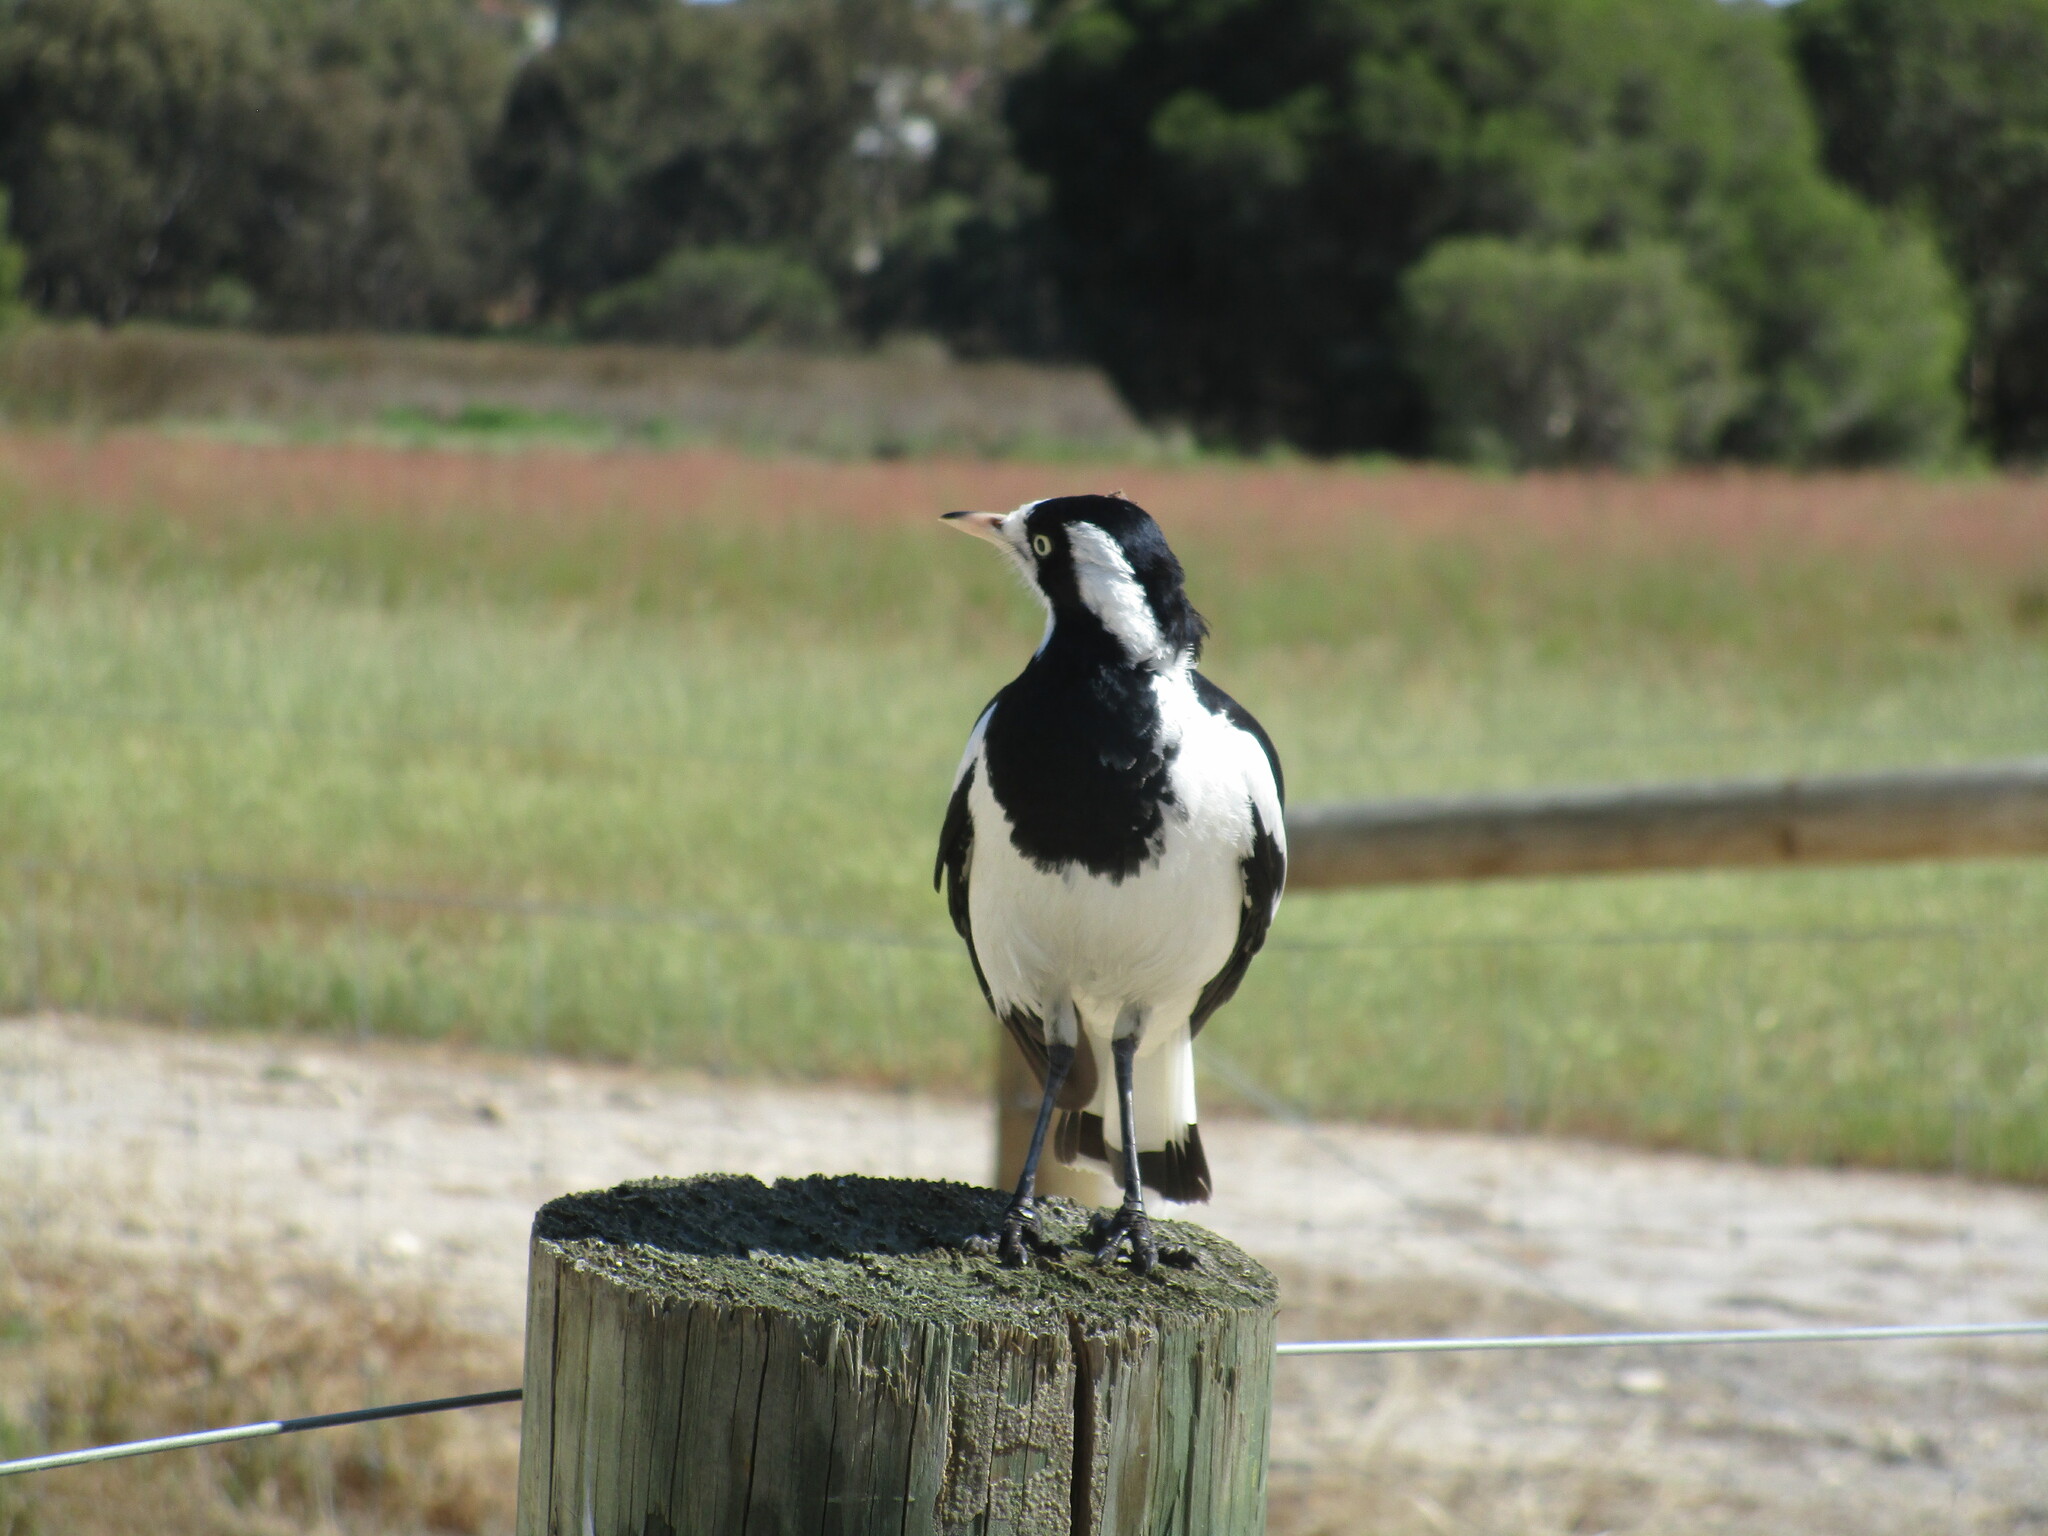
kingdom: Animalia
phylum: Chordata
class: Aves
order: Passeriformes
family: Monarchidae
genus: Grallina
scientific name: Grallina cyanoleuca
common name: Magpie-lark
